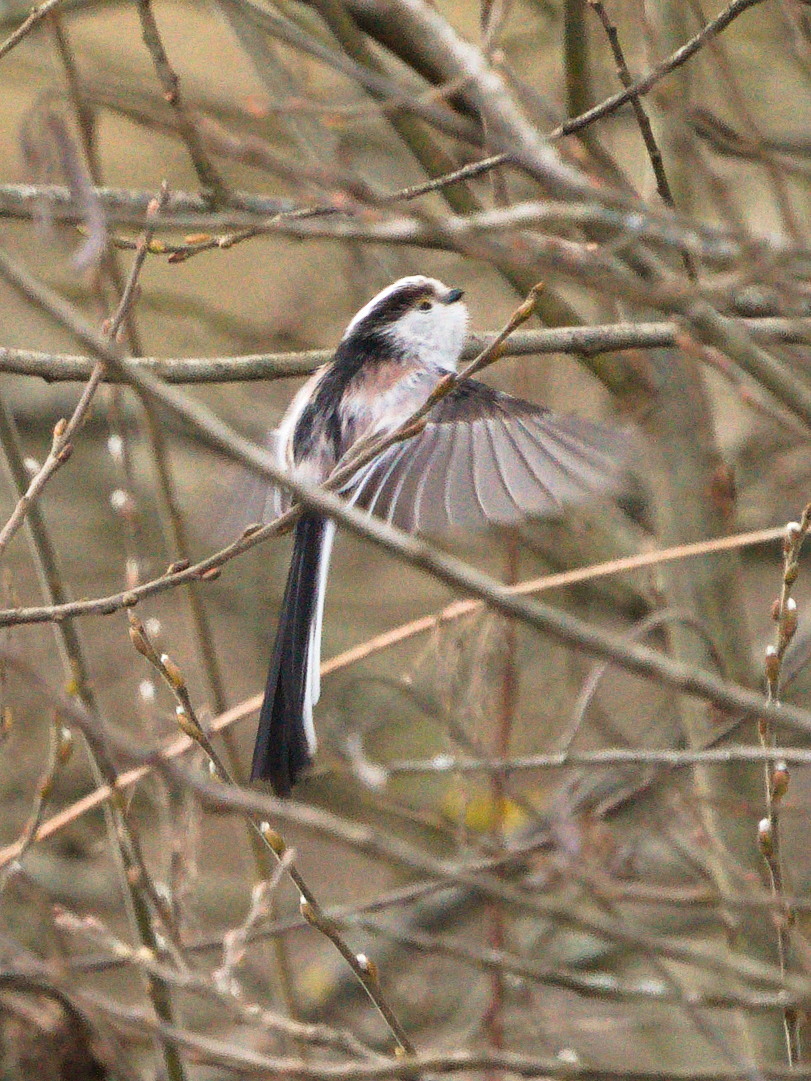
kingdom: Animalia
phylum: Chordata
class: Aves
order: Passeriformes
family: Aegithalidae
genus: Aegithalos
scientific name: Aegithalos caudatus
